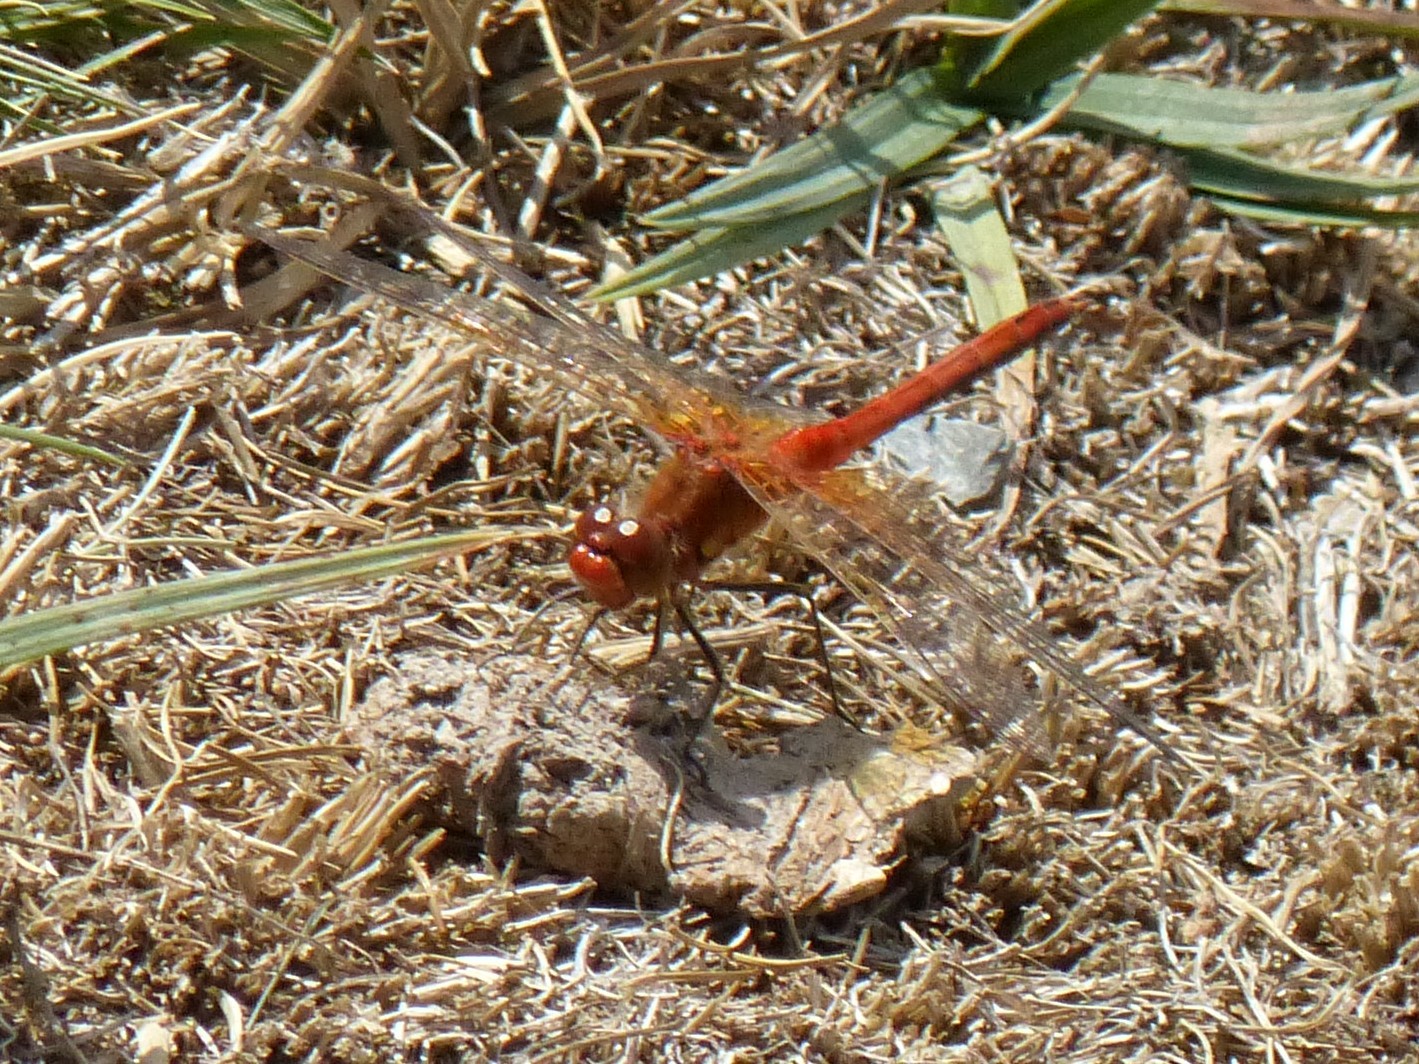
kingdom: Animalia
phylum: Arthropoda
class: Insecta
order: Odonata
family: Libellulidae
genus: Sympetrum
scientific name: Sympetrum flaveolum
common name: Yellow-winged darter
